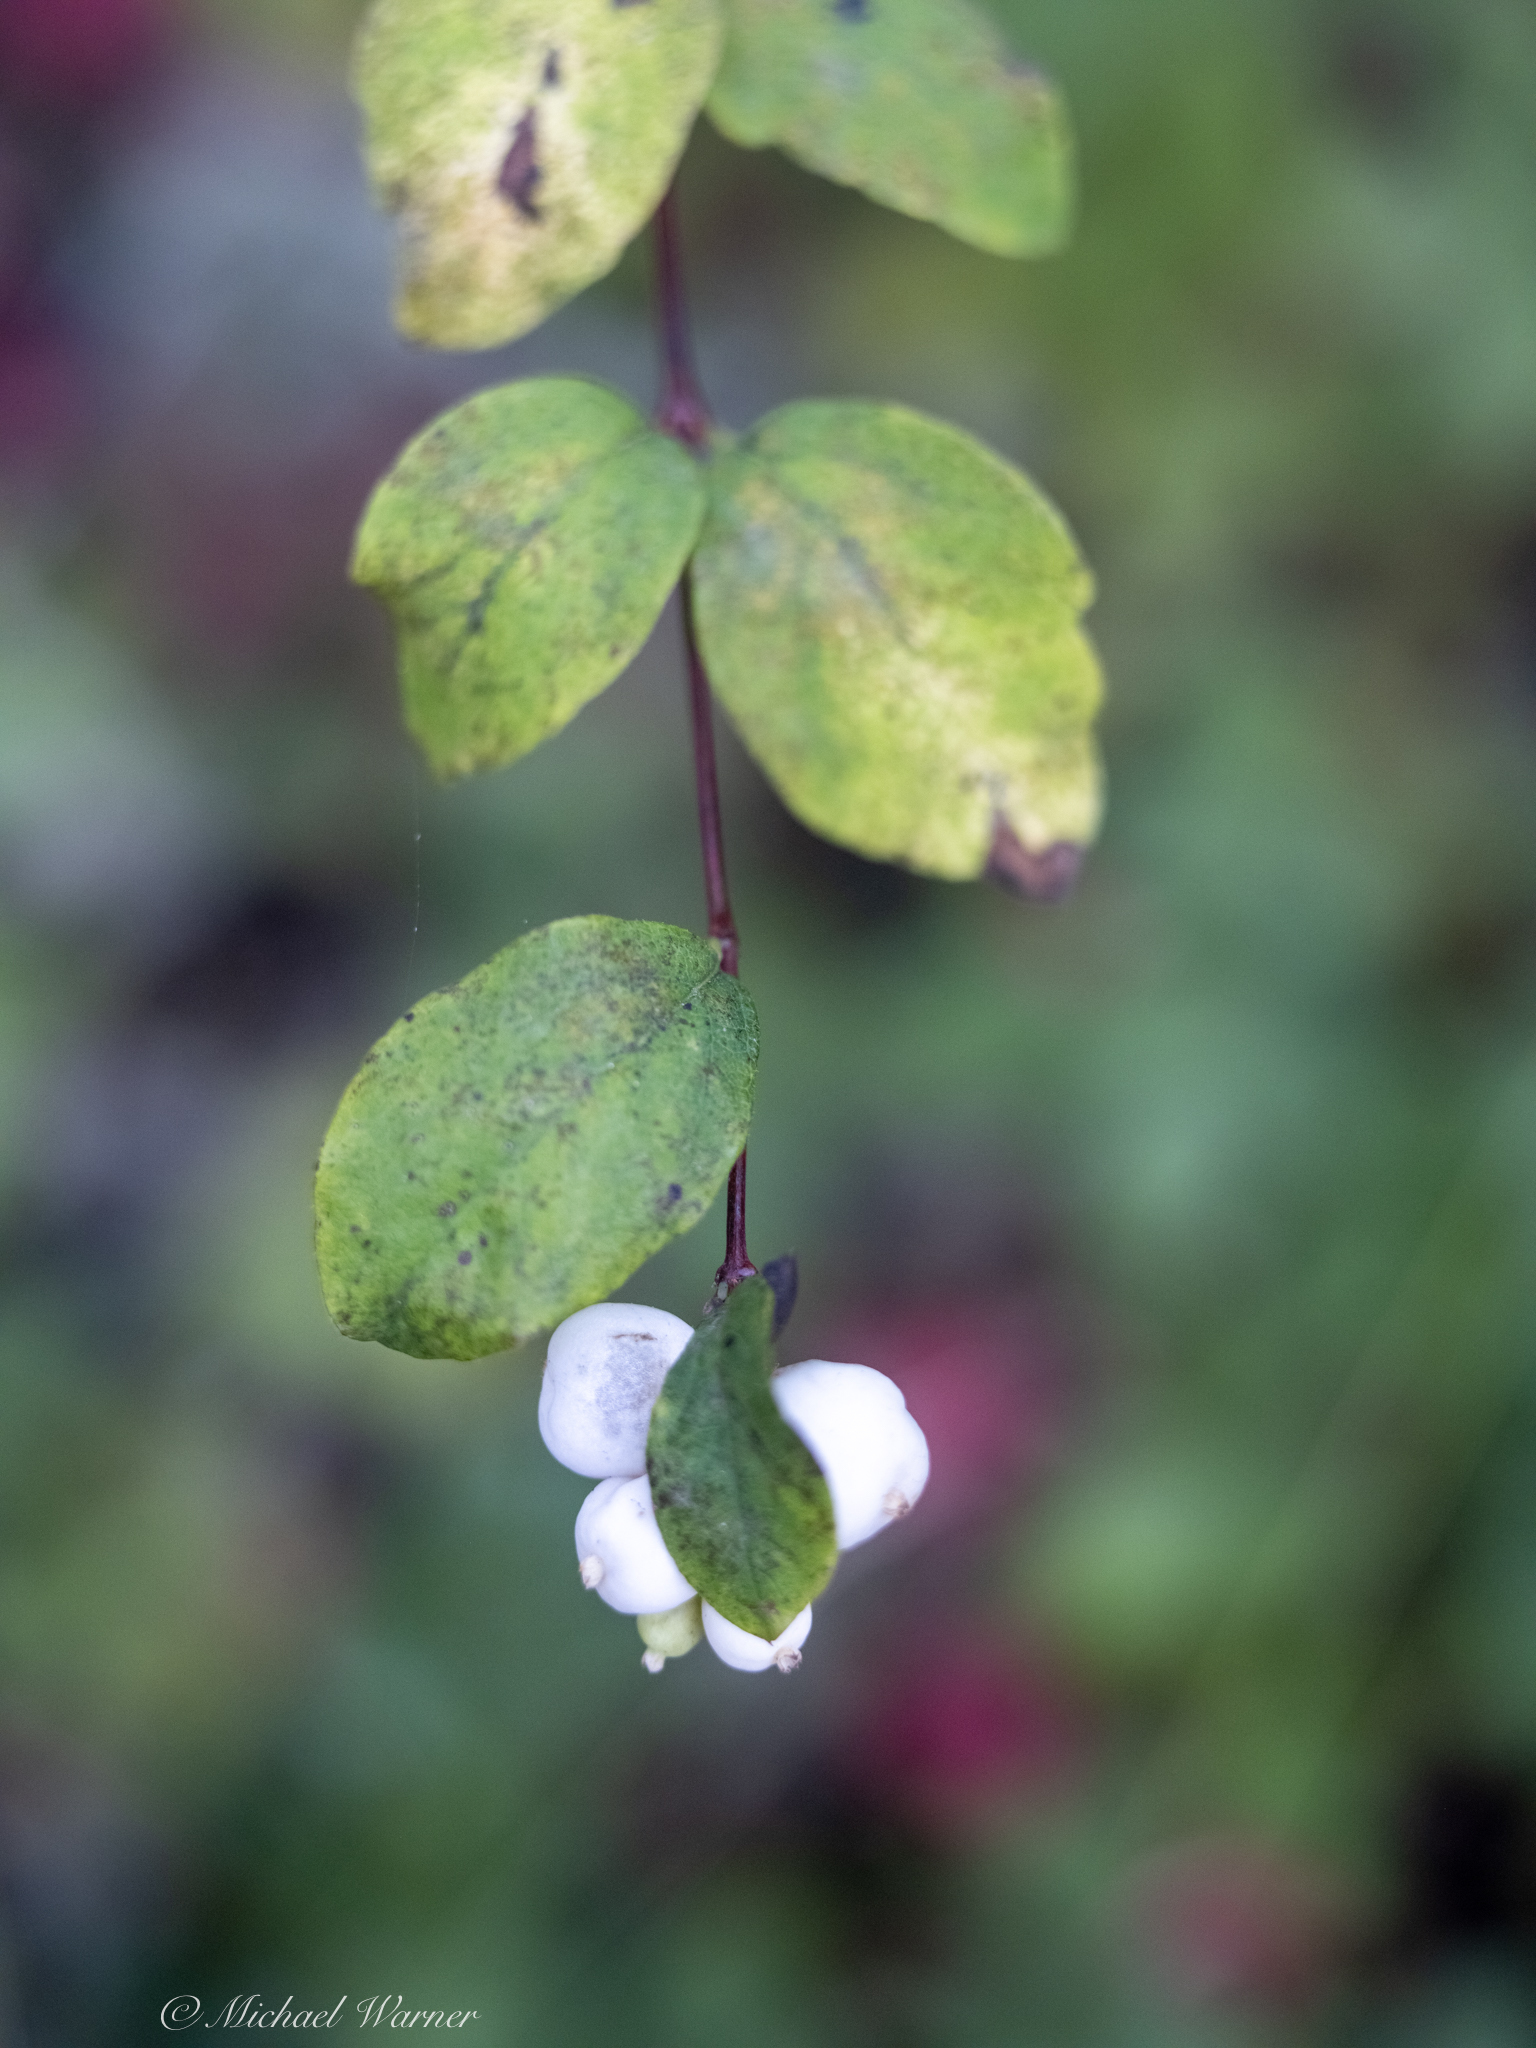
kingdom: Plantae
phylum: Tracheophyta
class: Magnoliopsida
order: Dipsacales
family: Caprifoliaceae
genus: Symphoricarpos
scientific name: Symphoricarpos albus
